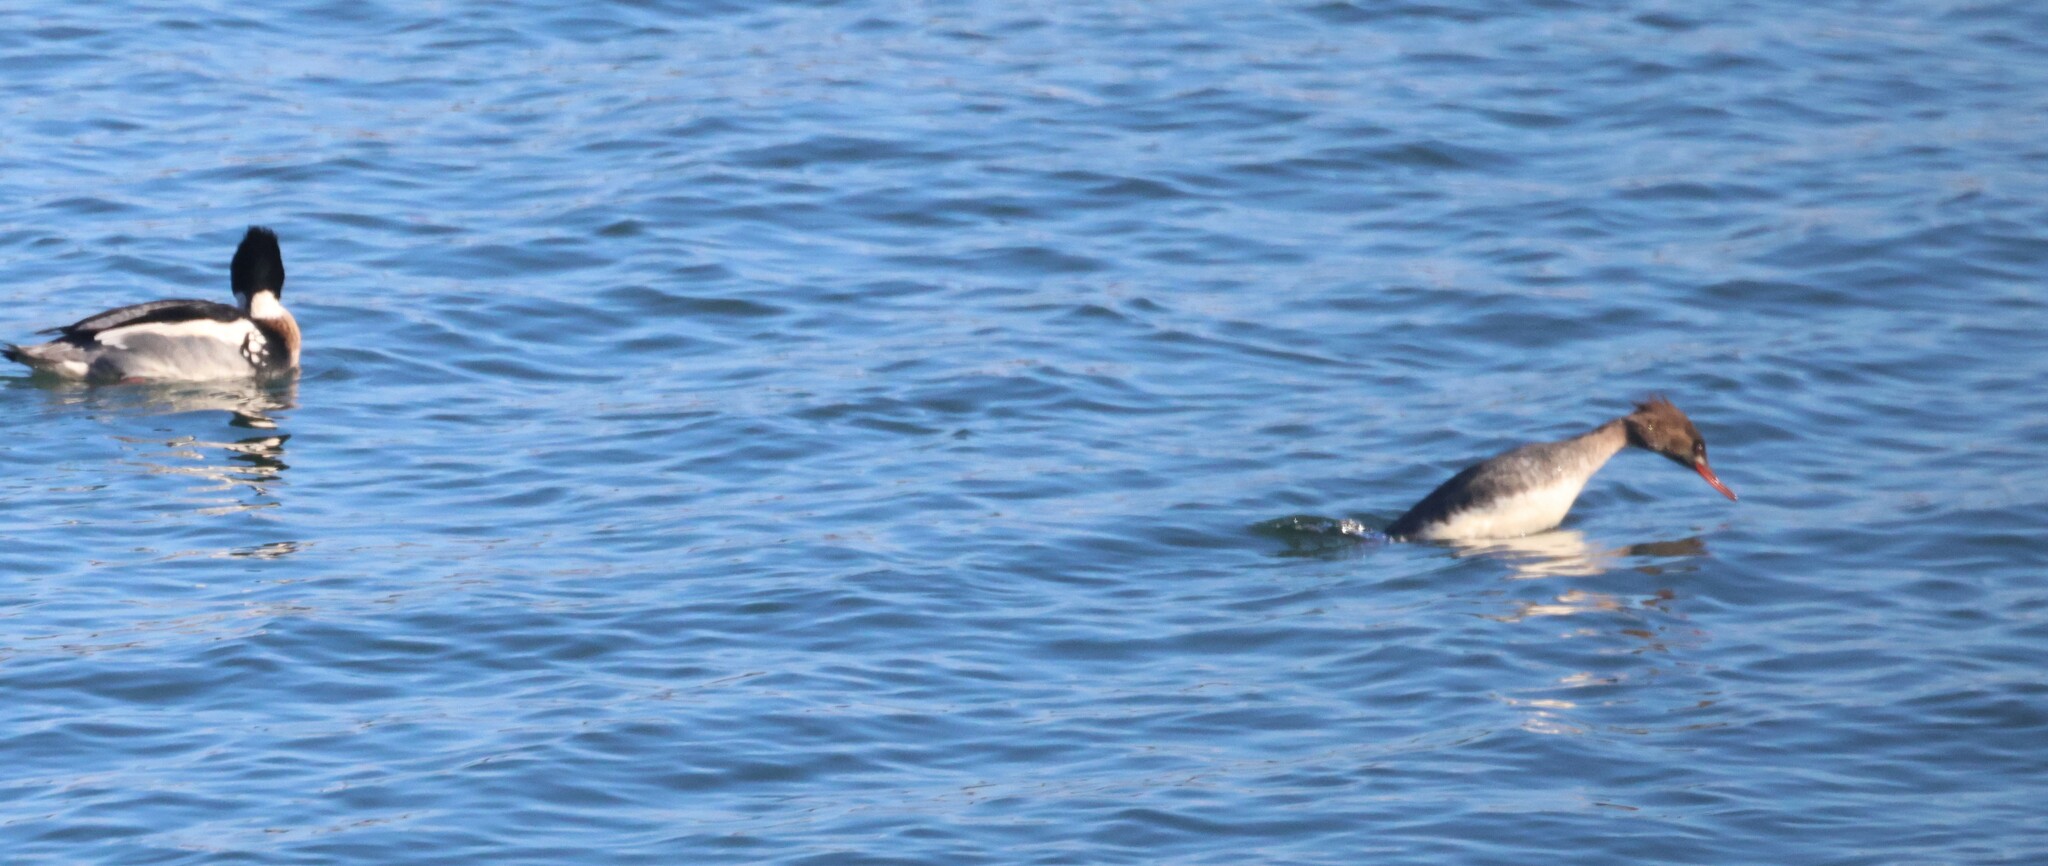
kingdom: Animalia
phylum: Chordata
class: Aves
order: Anseriformes
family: Anatidae
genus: Mergus
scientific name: Mergus serrator
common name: Red-breasted merganser
